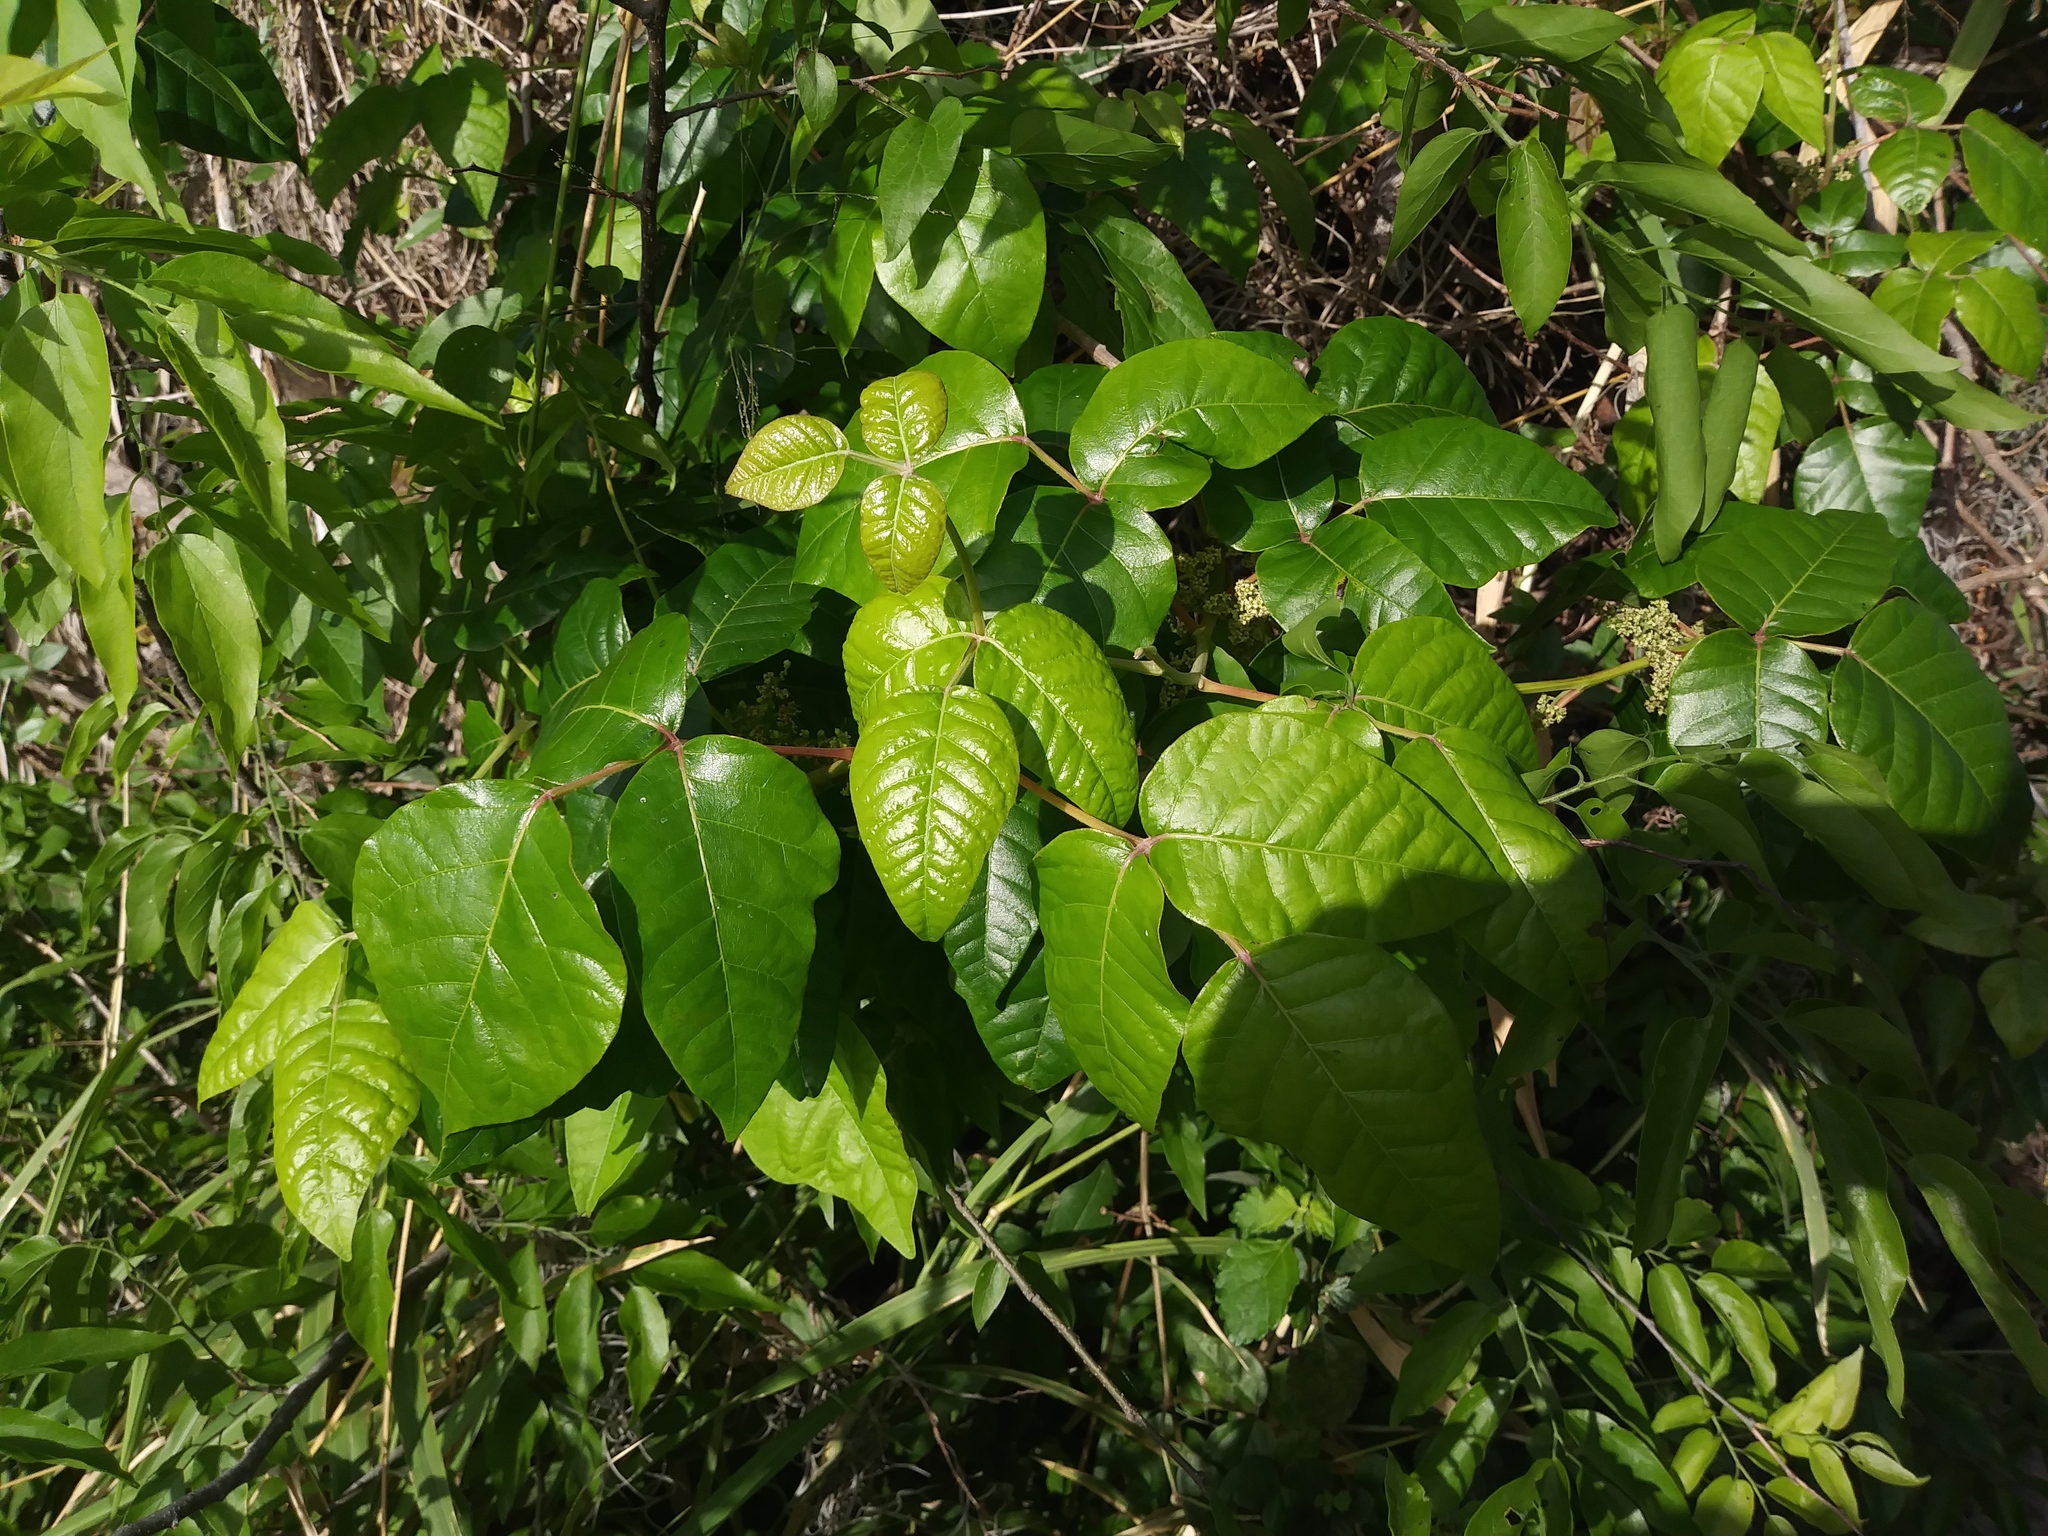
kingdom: Plantae
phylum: Tracheophyta
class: Magnoliopsida
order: Sapindales
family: Anacardiaceae
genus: Toxicodendron
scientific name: Toxicodendron radicans
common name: Poison ivy
